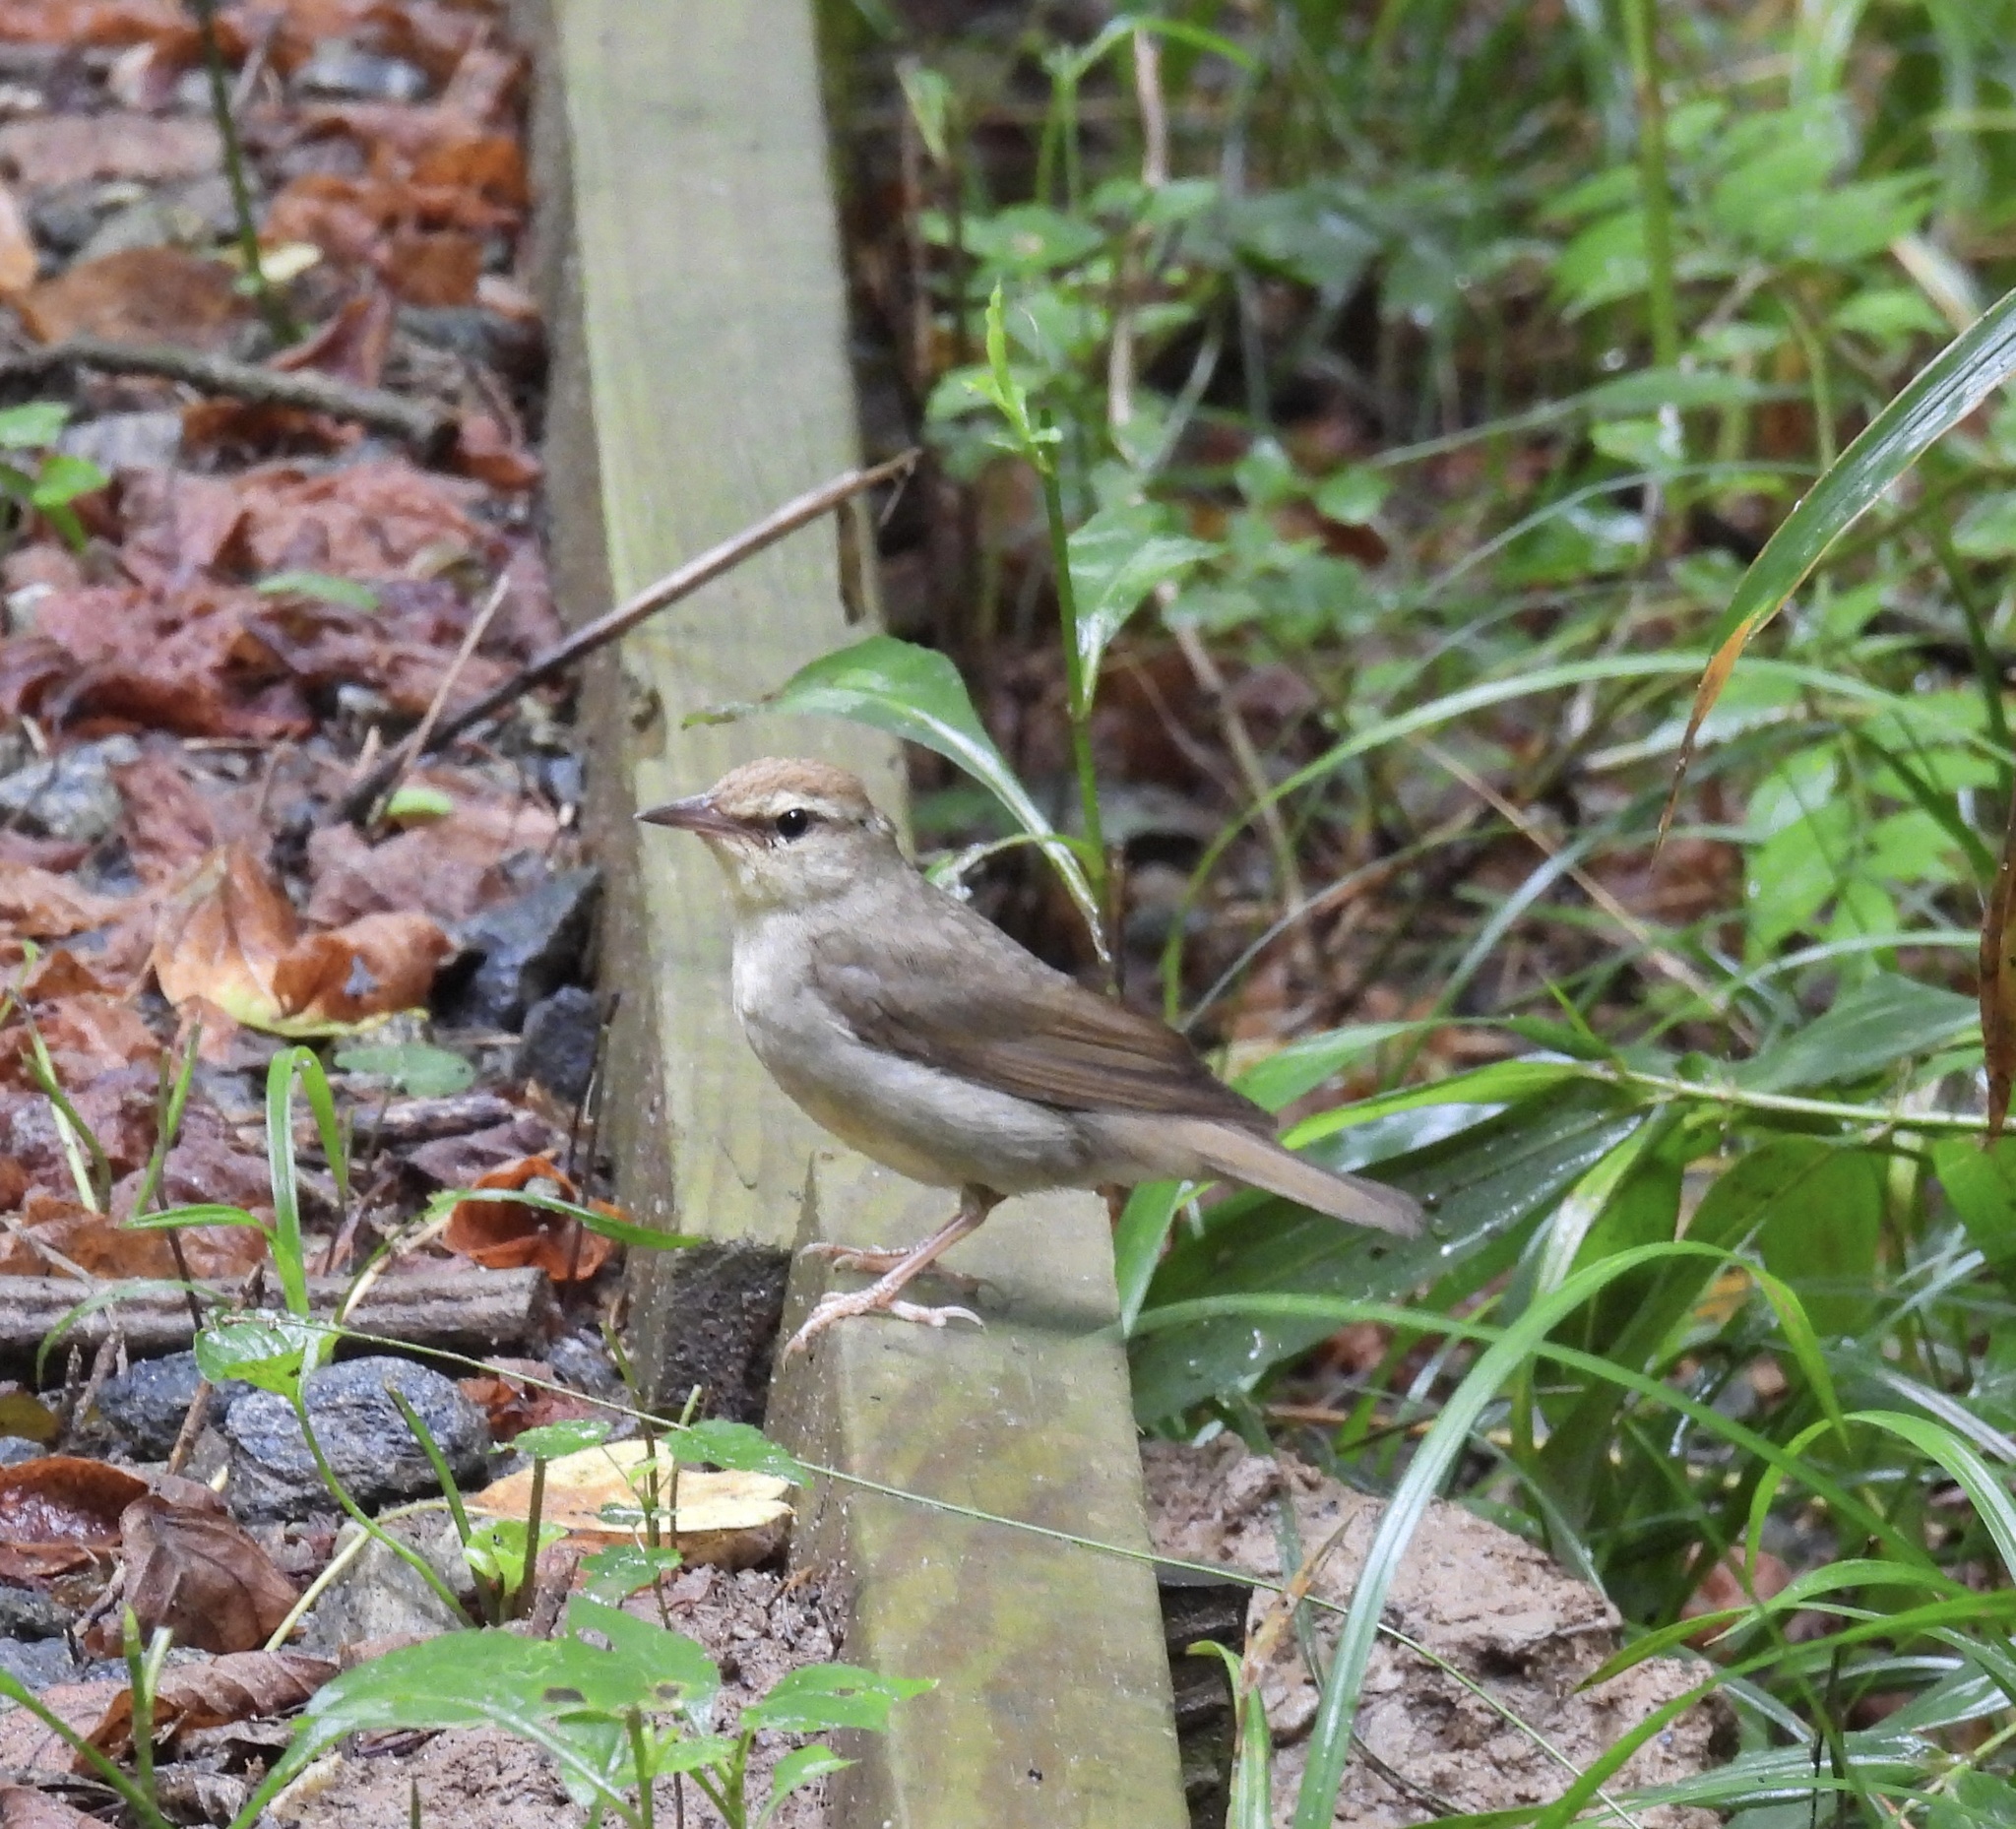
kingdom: Animalia
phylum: Chordata
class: Aves
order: Passeriformes
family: Parulidae
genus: Limnothlypis
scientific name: Limnothlypis swainsonii
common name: Swainson's warbler
